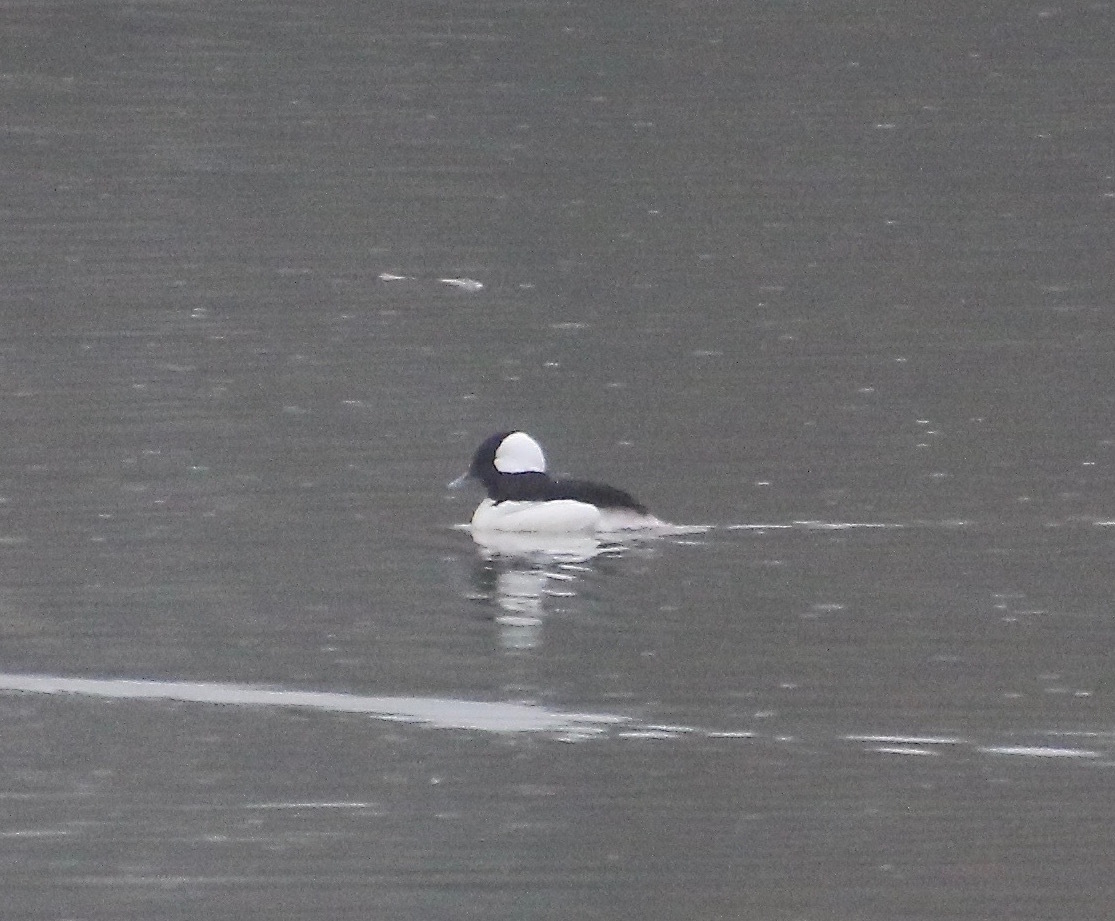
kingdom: Animalia
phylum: Chordata
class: Aves
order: Anseriformes
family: Anatidae
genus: Bucephala
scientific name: Bucephala albeola
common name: Bufflehead
